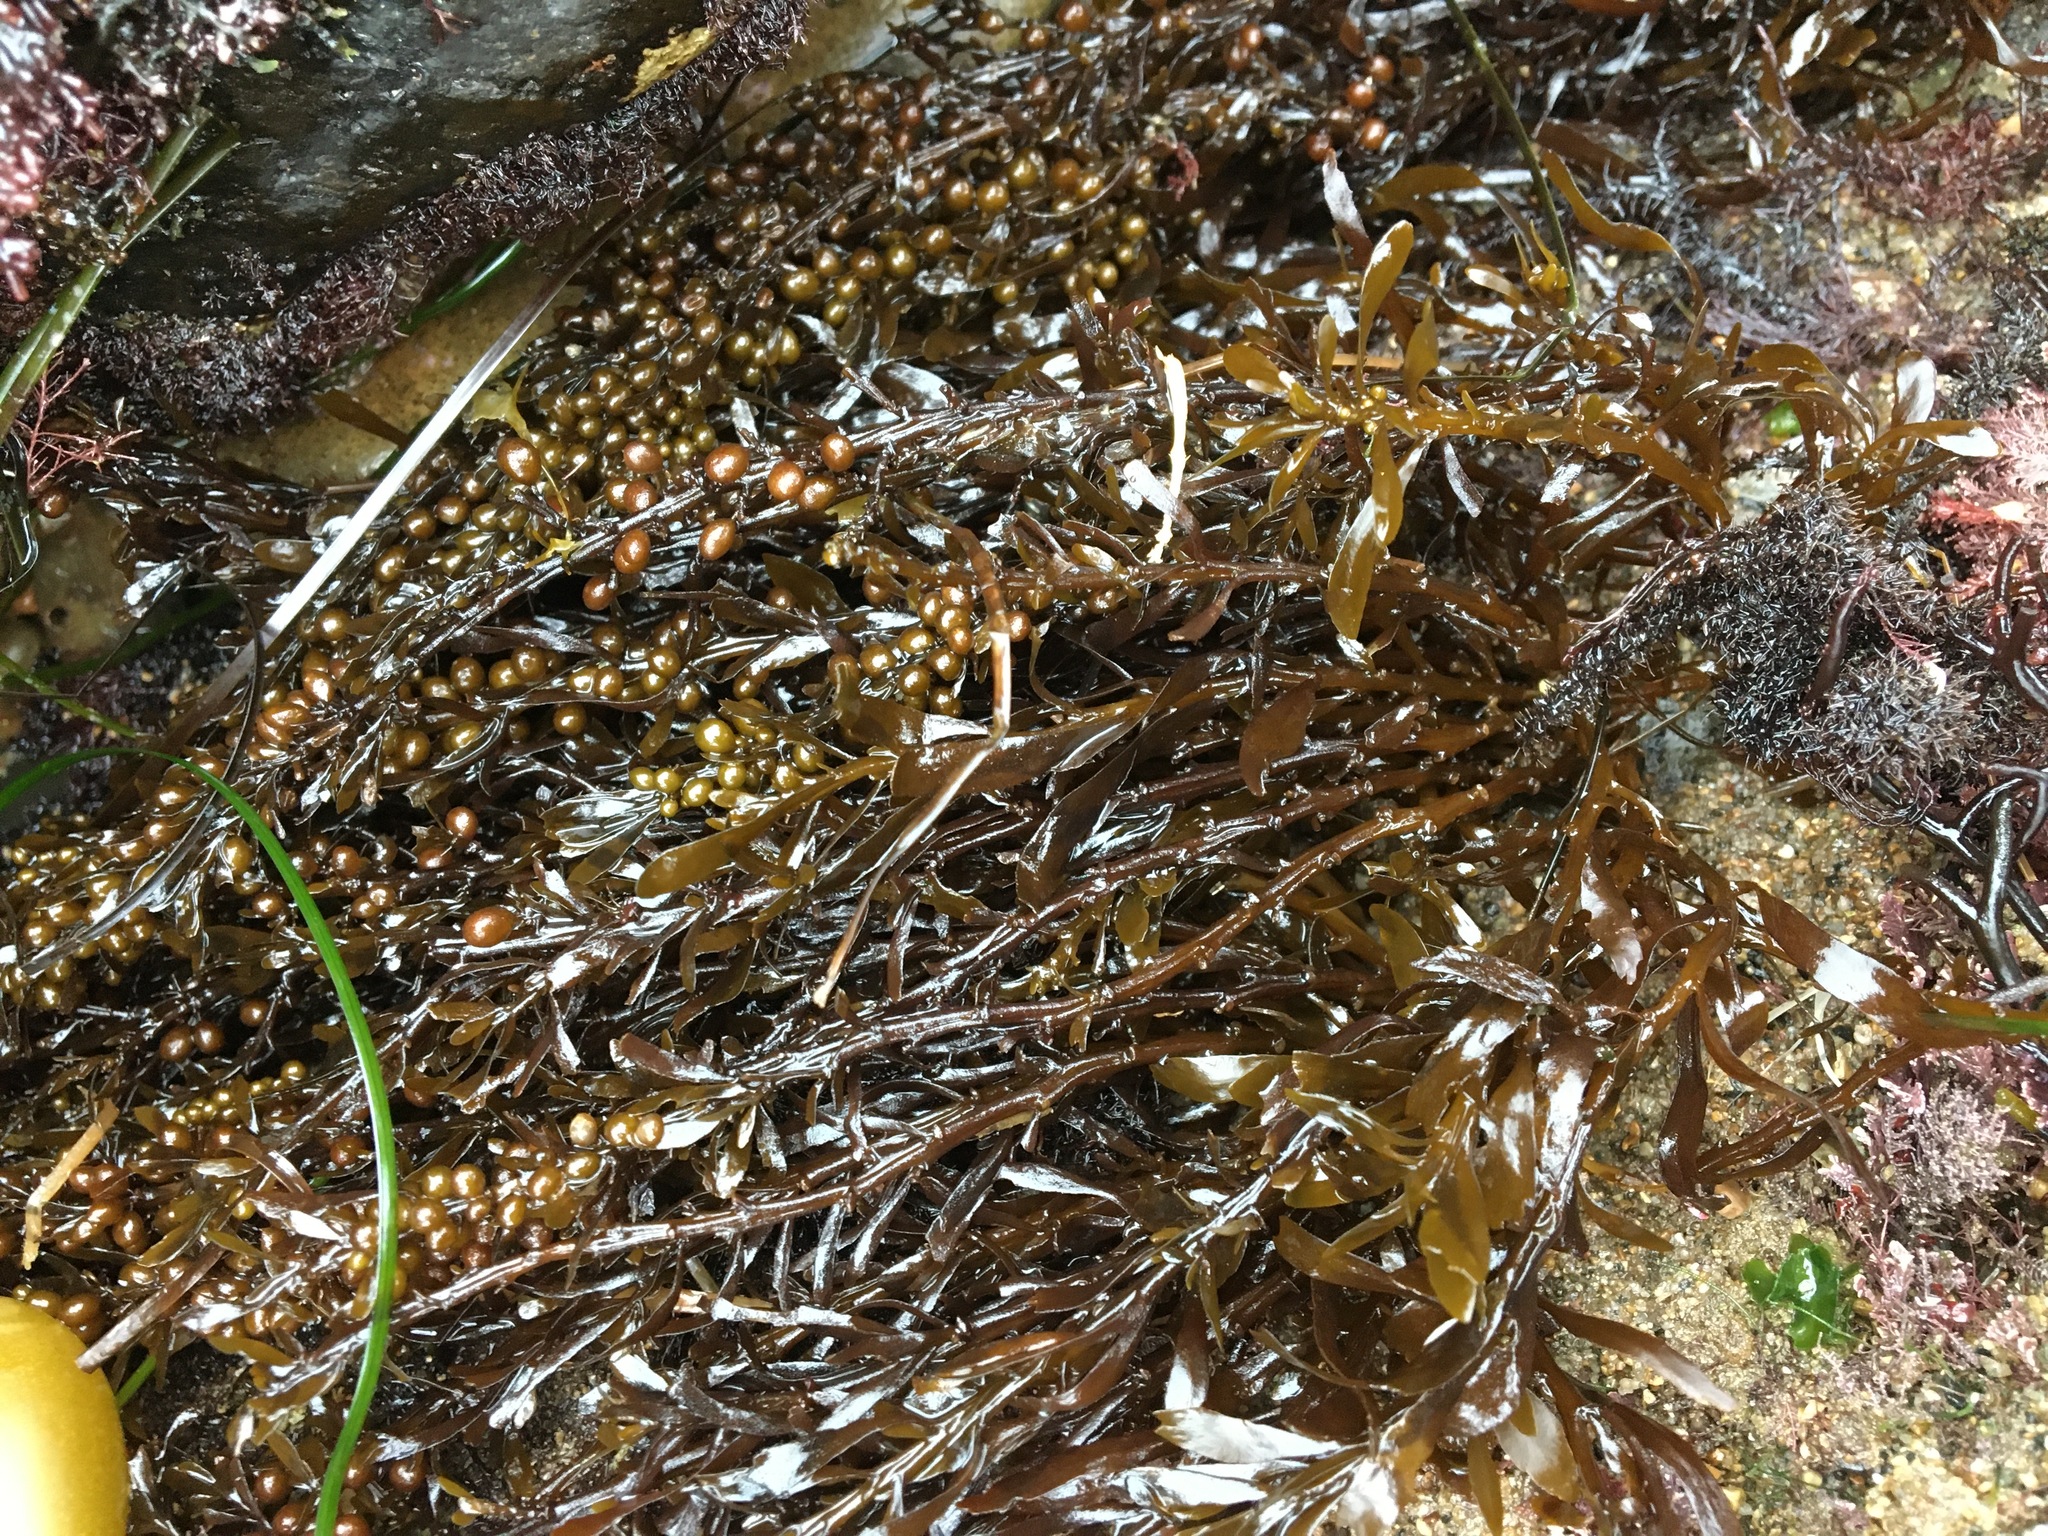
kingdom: Chromista
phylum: Ochrophyta
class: Phaeophyceae
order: Fucales
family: Sargassaceae
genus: Sargassum
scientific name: Sargassum muticum
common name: Japweed
